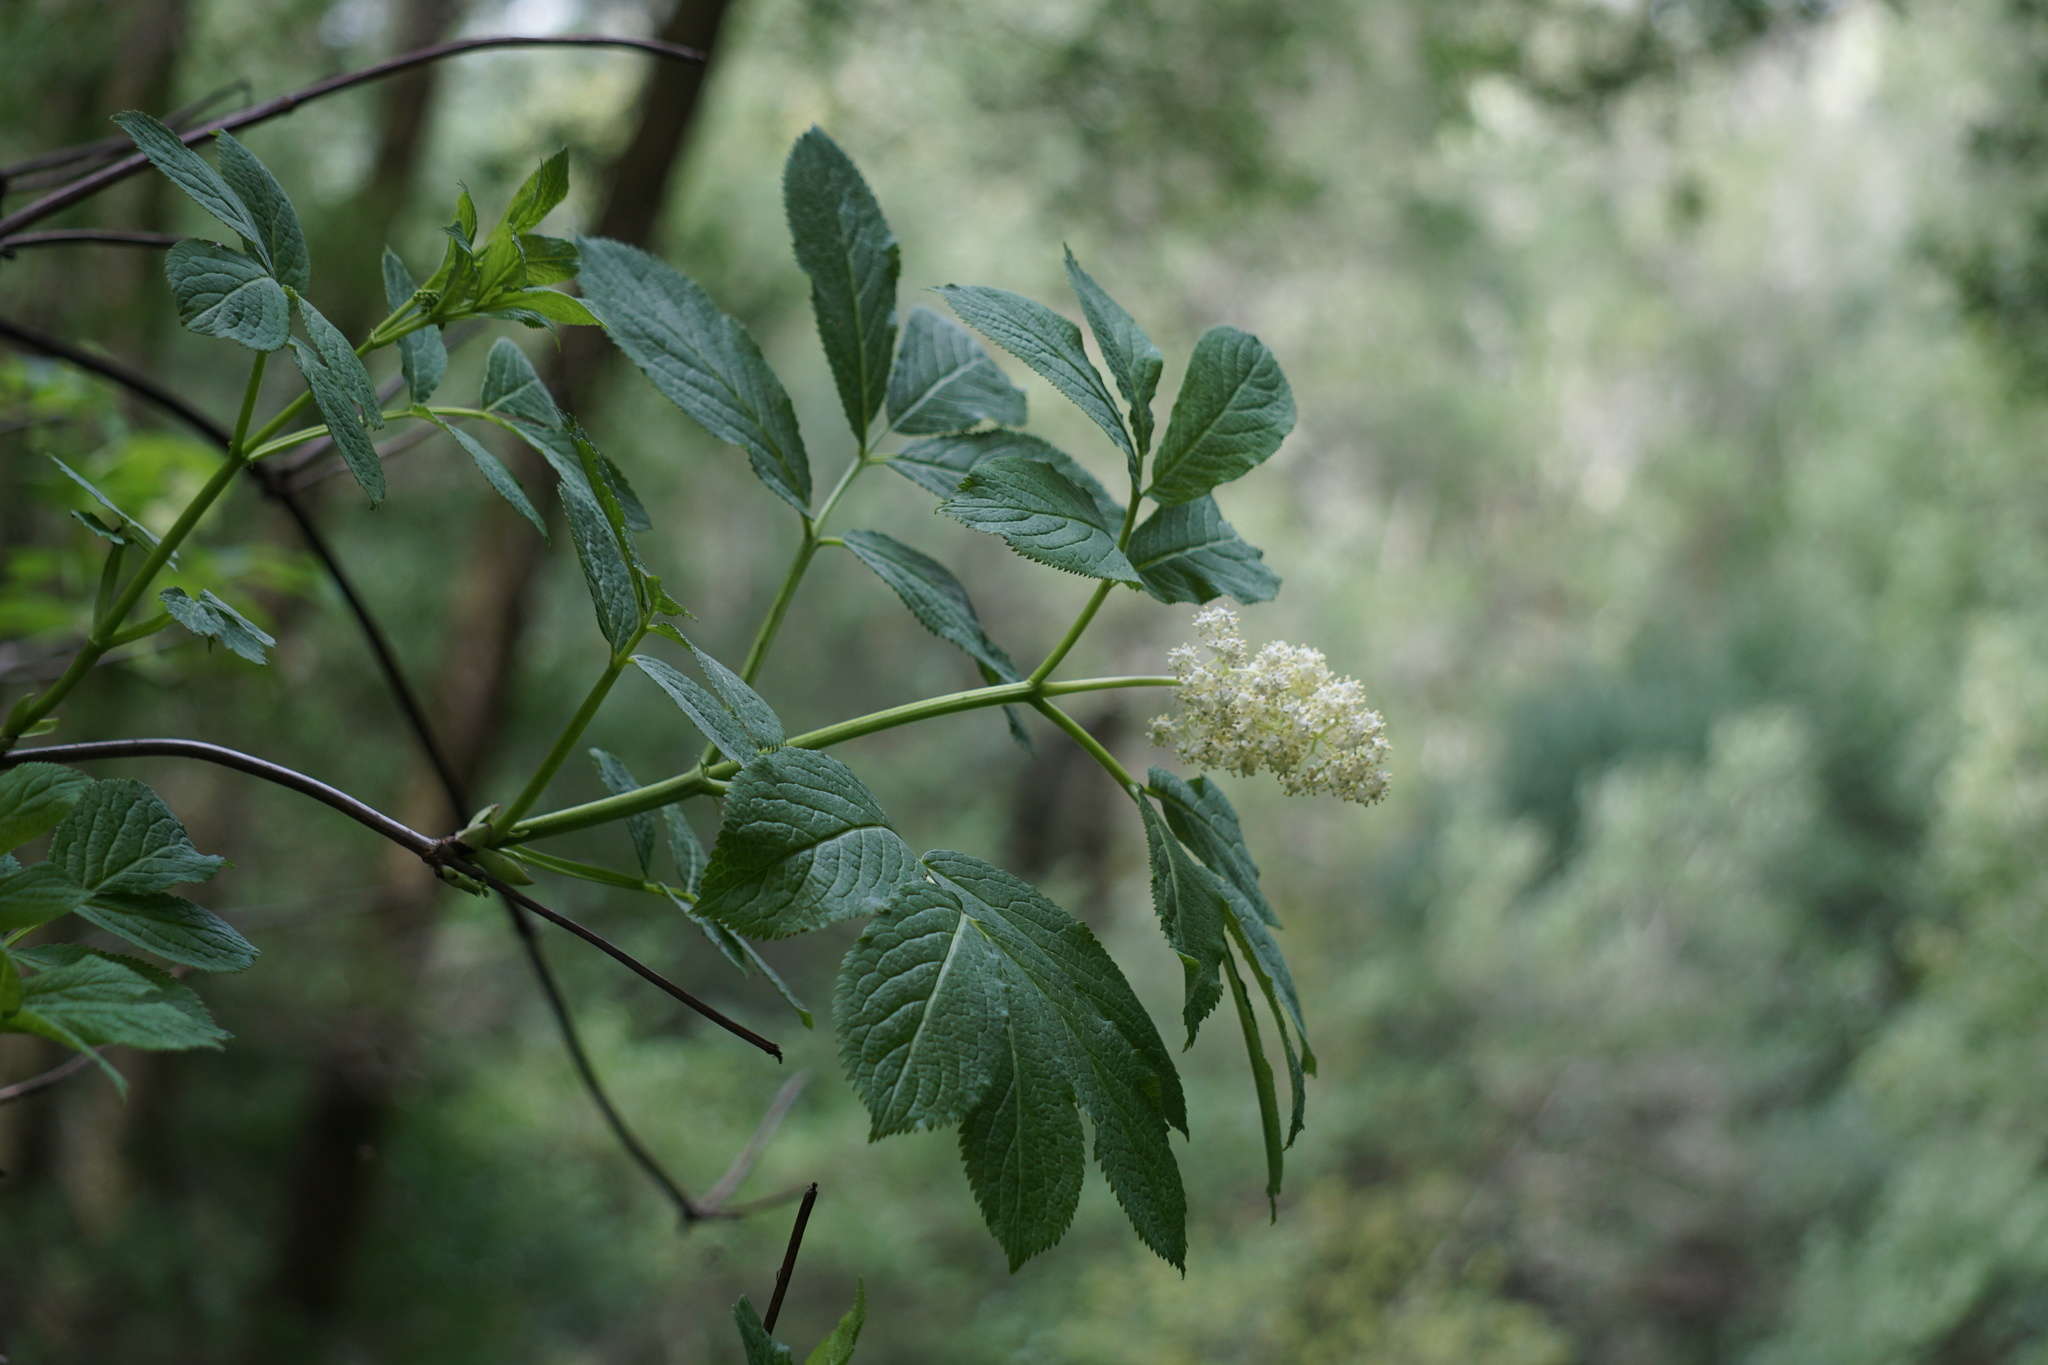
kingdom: Plantae
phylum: Tracheophyta
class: Magnoliopsida
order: Dipsacales
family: Viburnaceae
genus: Sambucus
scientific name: Sambucus racemosa
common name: Red-berried elder
